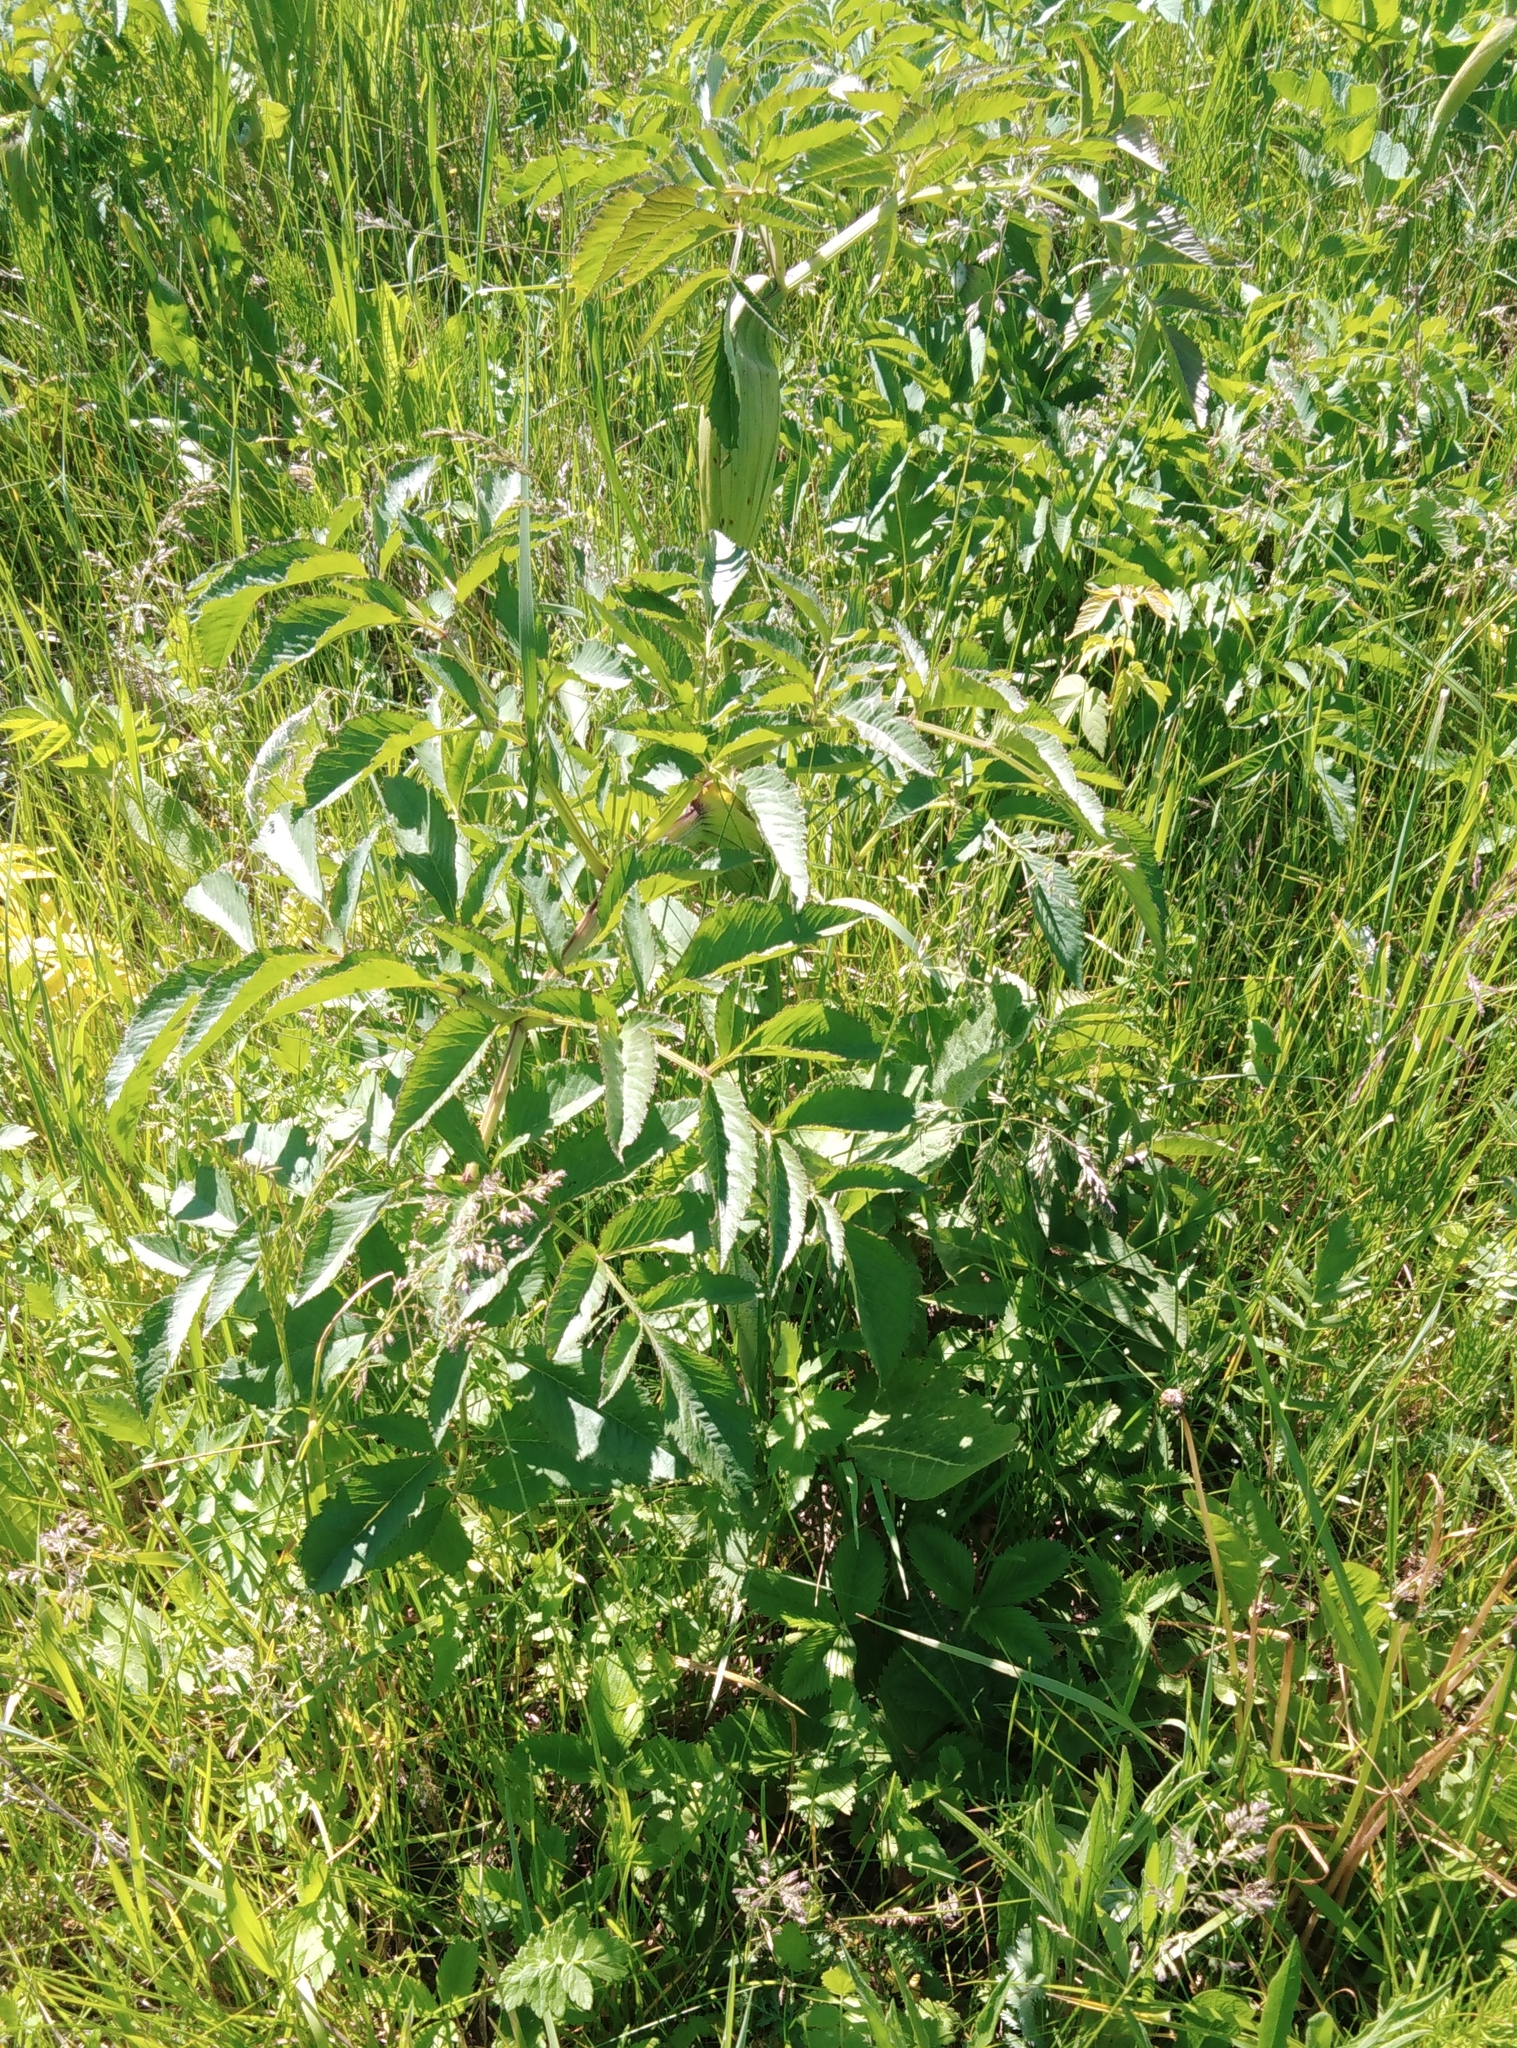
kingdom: Plantae
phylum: Tracheophyta
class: Magnoliopsida
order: Apiales
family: Apiaceae
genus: Angelica
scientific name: Angelica sylvestris
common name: Wild angelica
